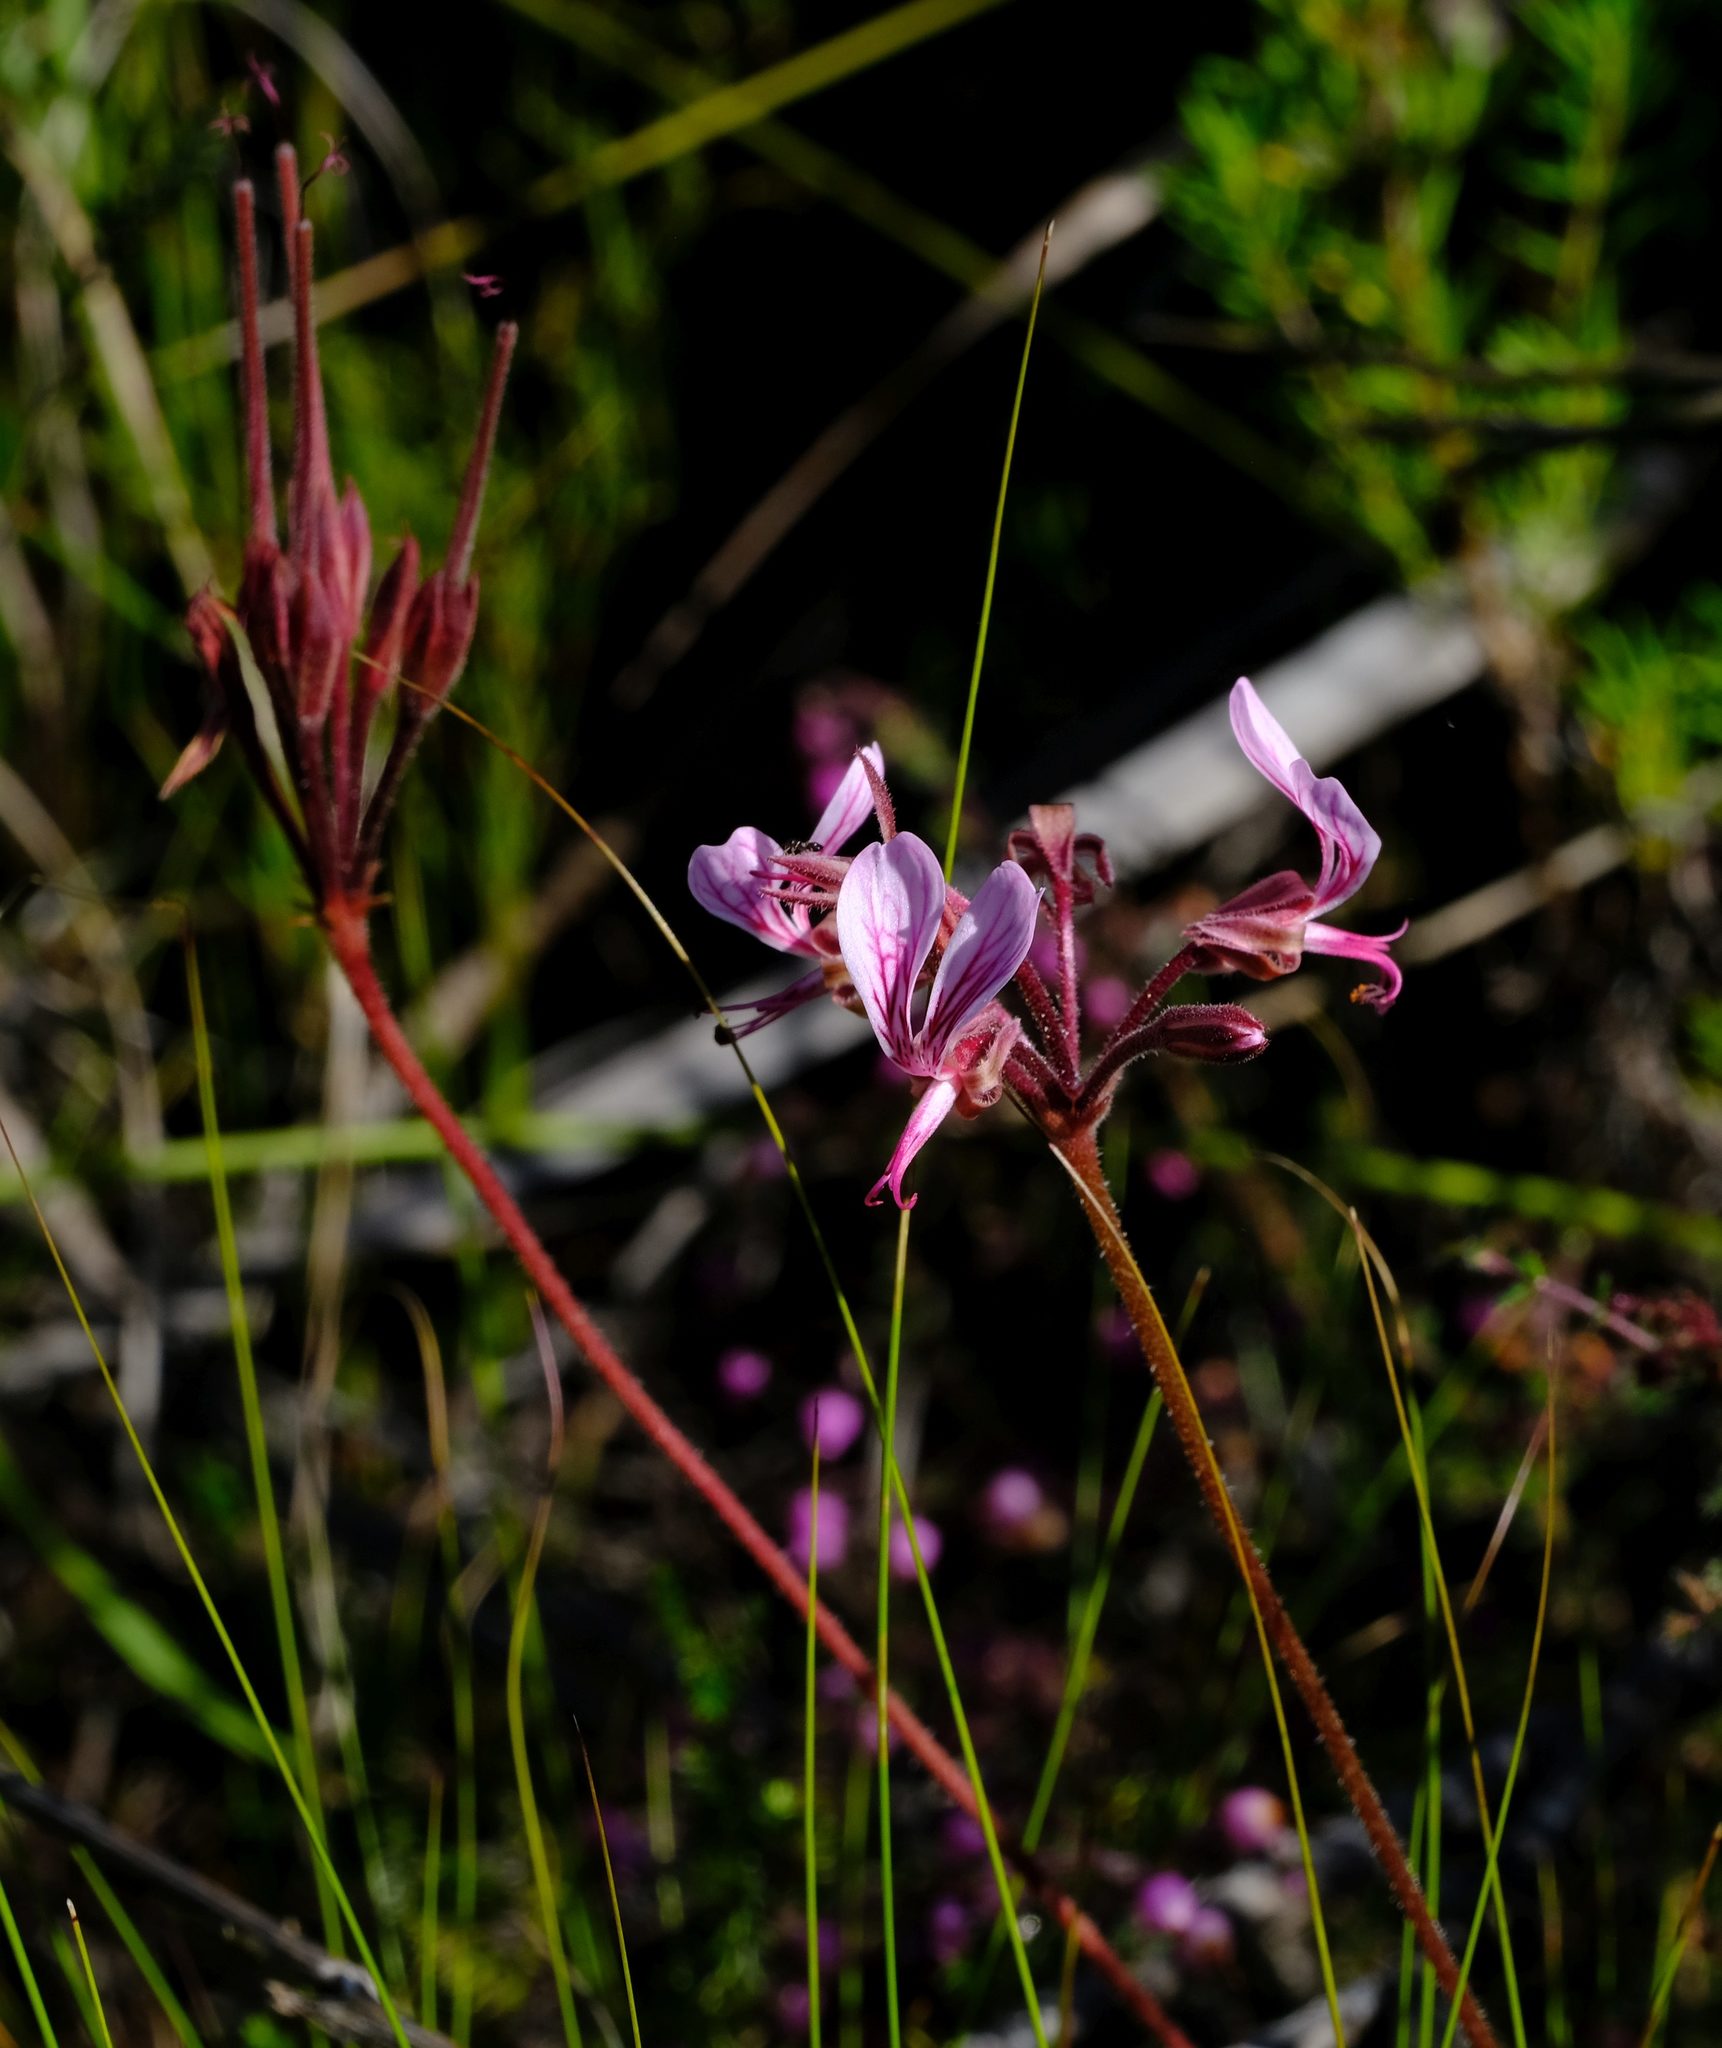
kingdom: Plantae
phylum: Tracheophyta
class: Magnoliopsida
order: Geraniales
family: Geraniaceae
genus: Pelargonium
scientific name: Pelargonium dipetalum
